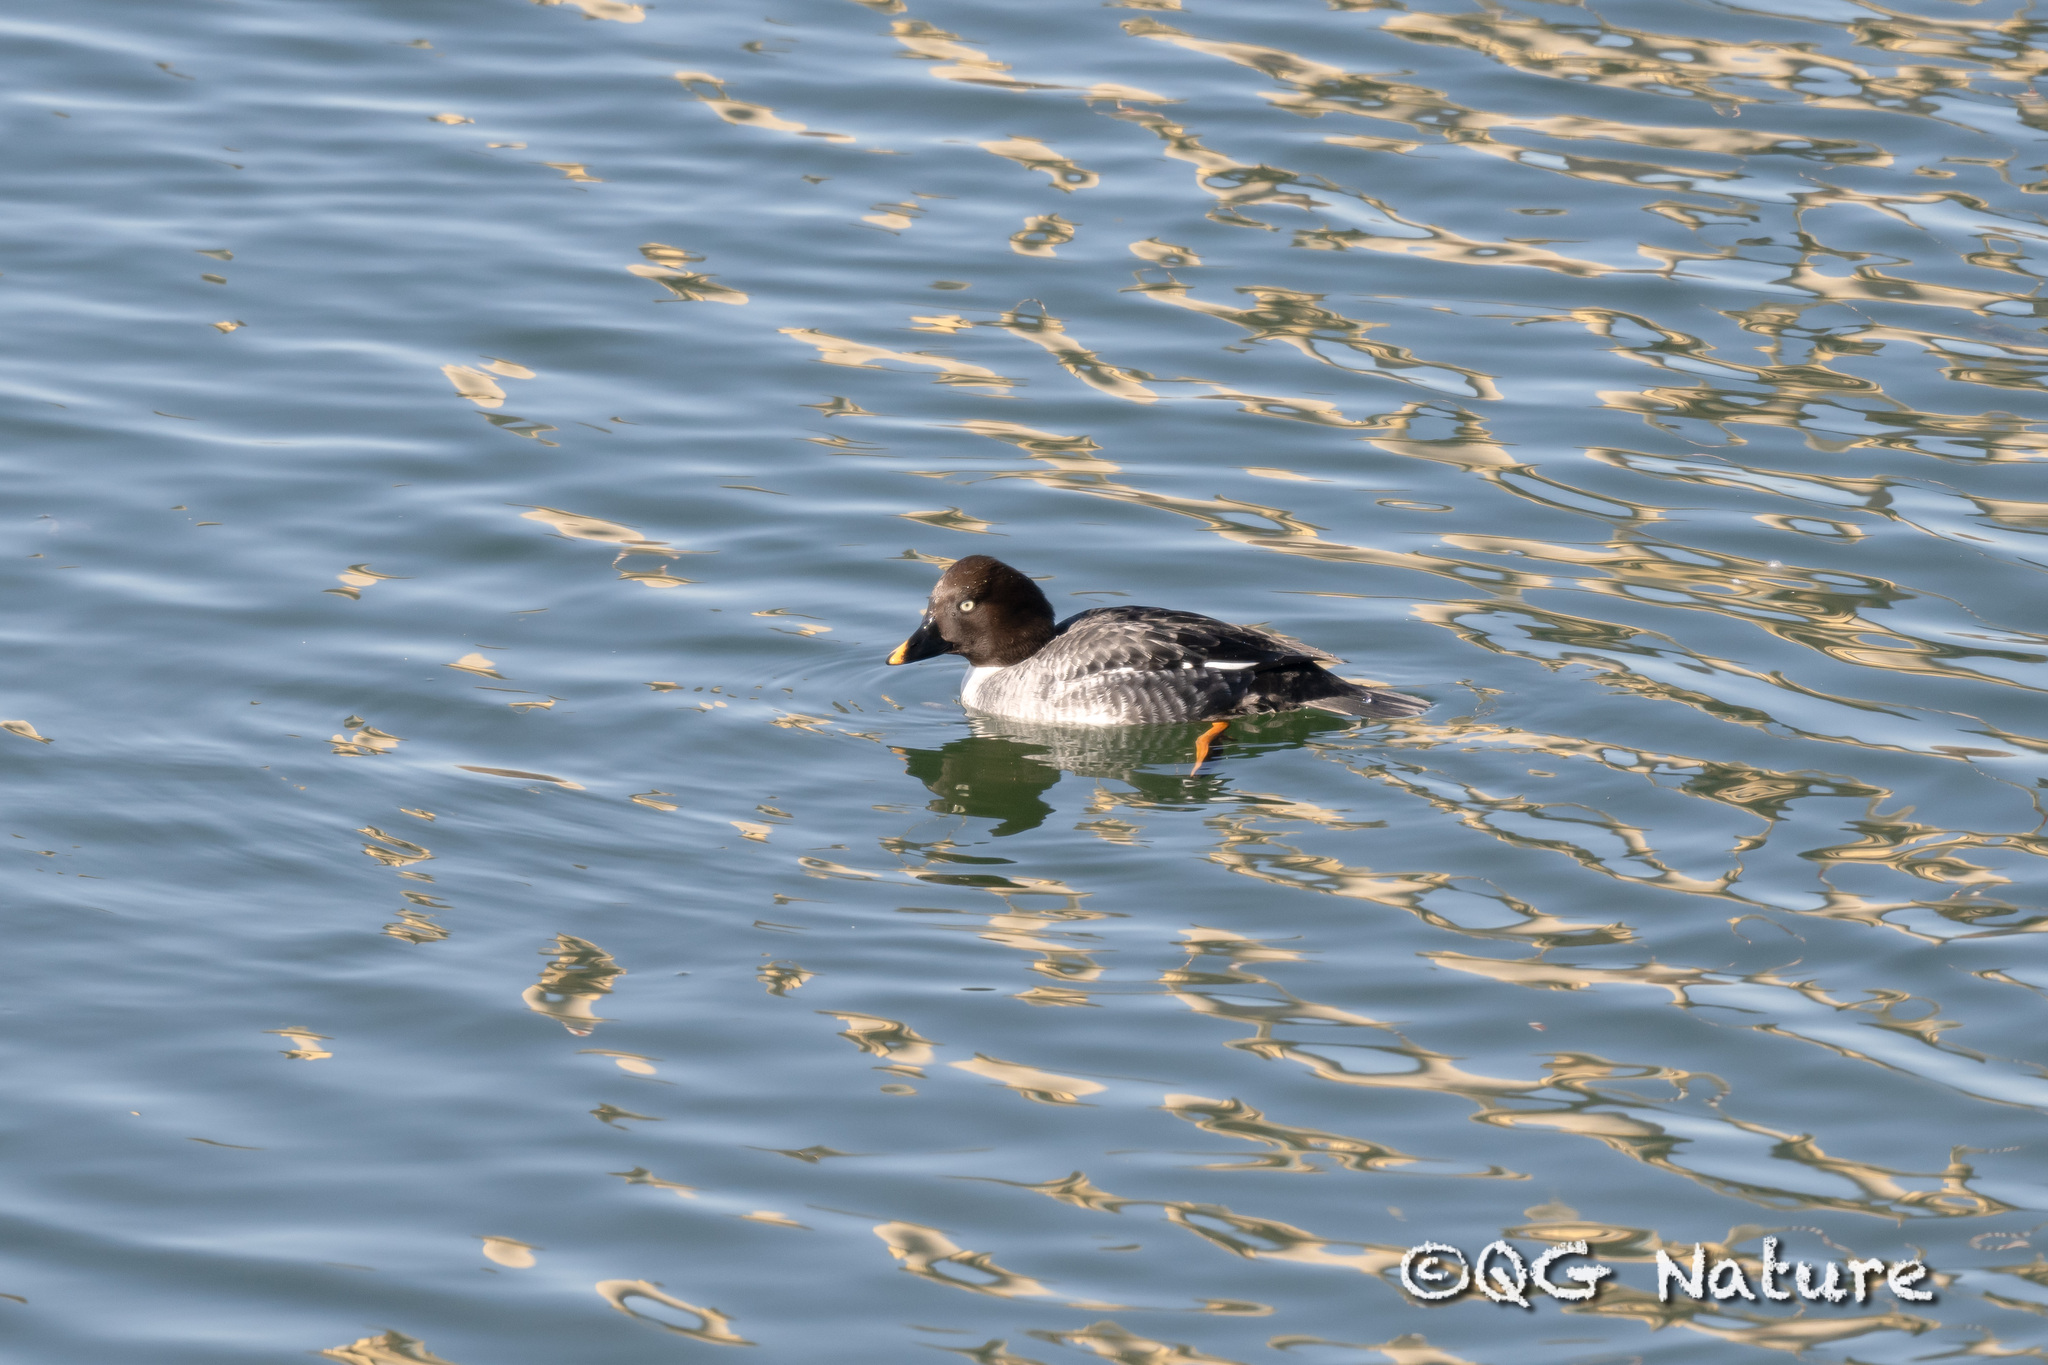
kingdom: Animalia
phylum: Chordata
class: Aves
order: Anseriformes
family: Anatidae
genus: Bucephala
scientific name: Bucephala clangula
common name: Common goldeneye
